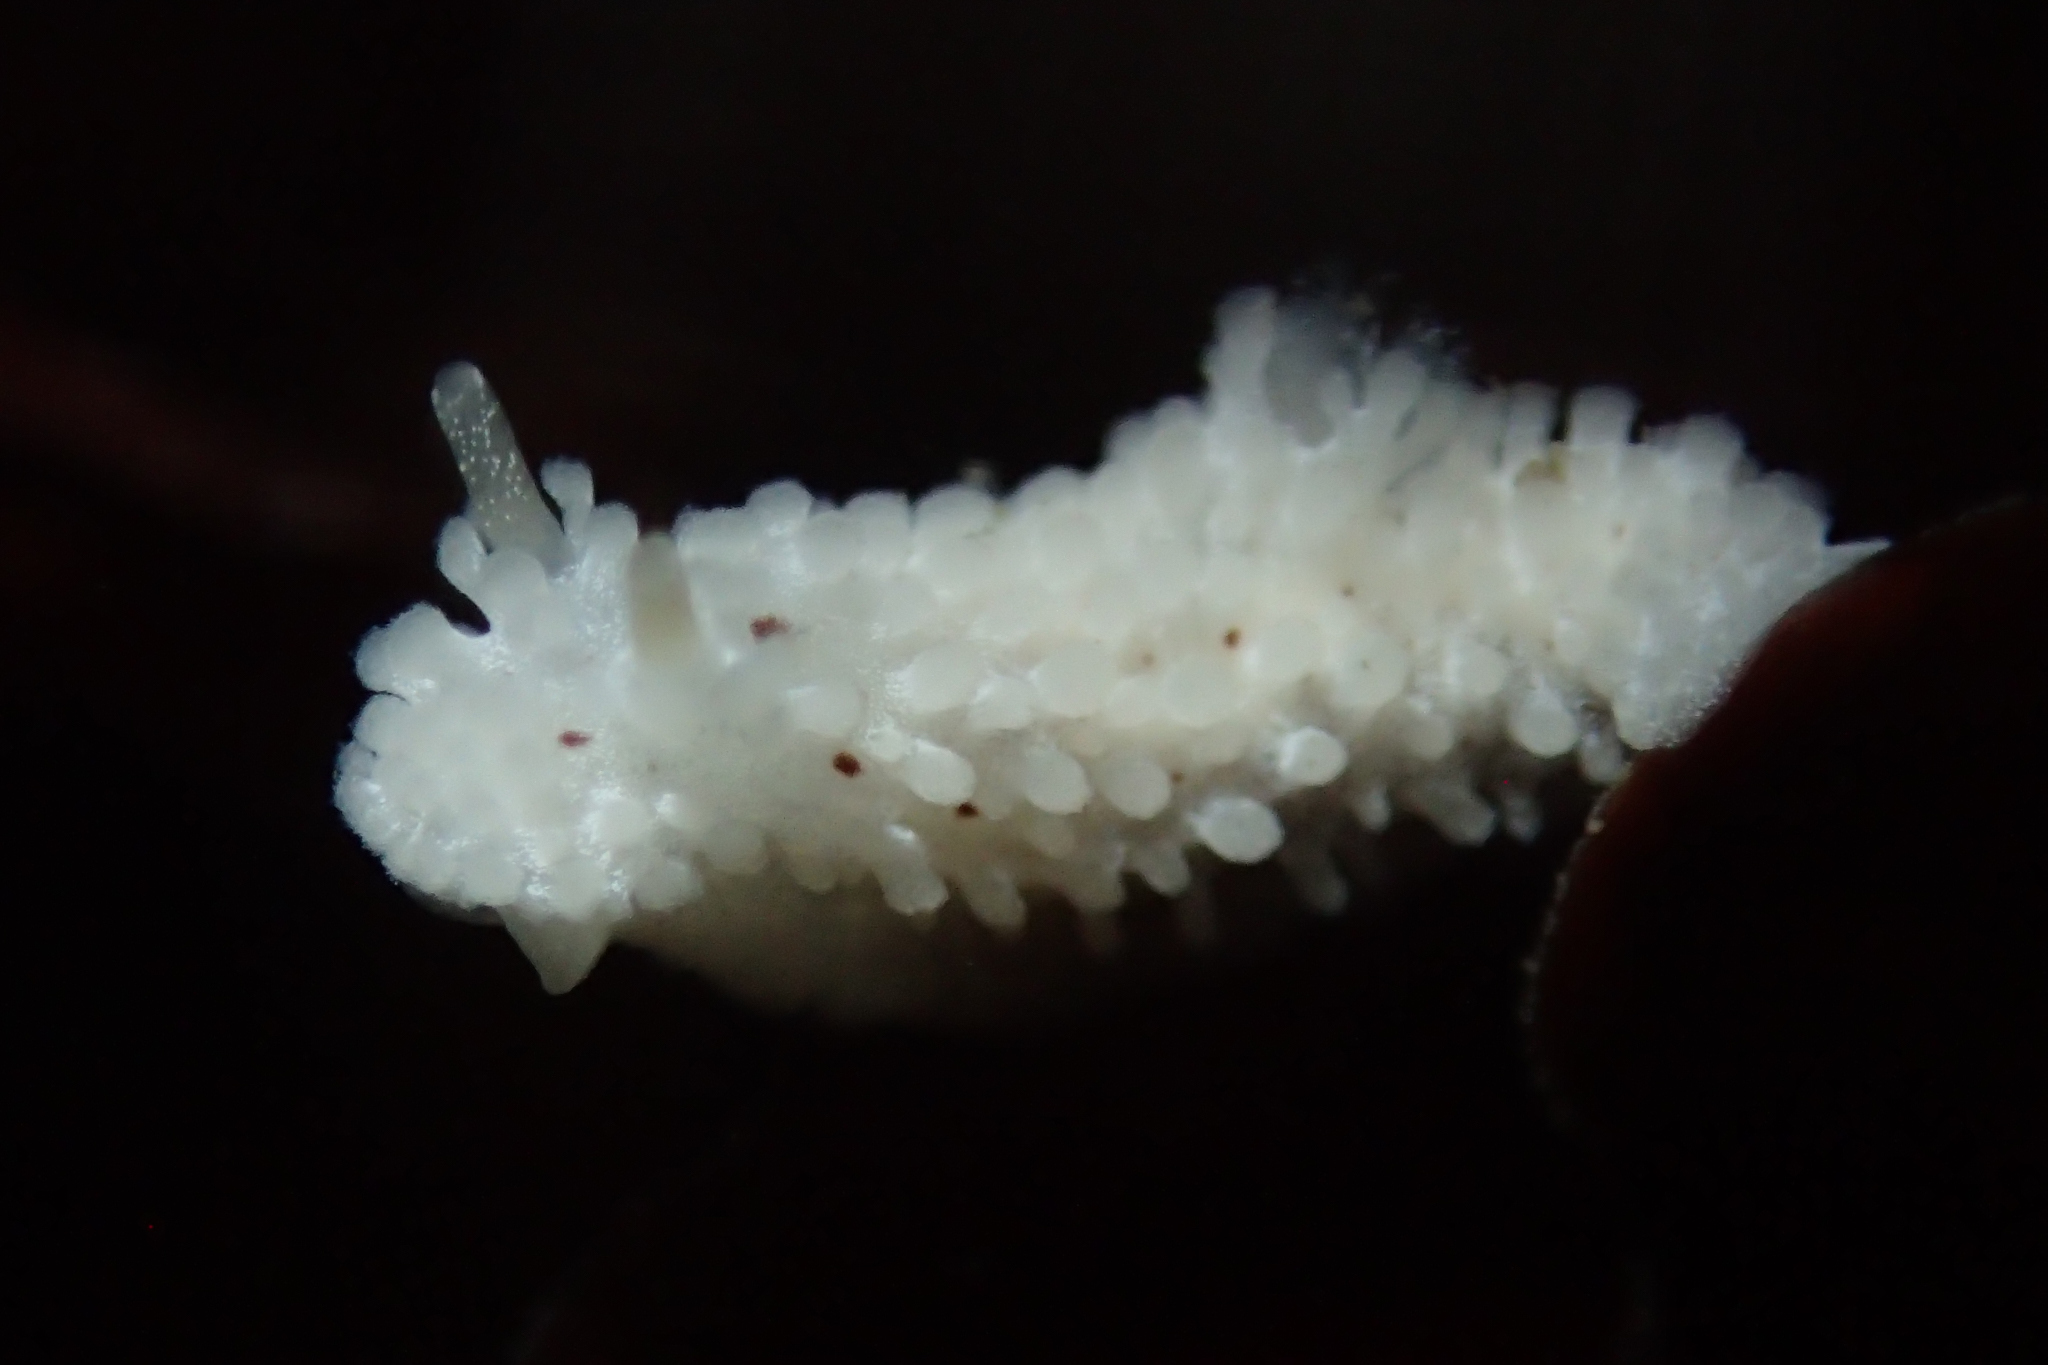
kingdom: Animalia
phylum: Mollusca
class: Gastropoda
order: Nudibranchia
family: Aegiridae
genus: Aegires
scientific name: Aegires albopunctatus
